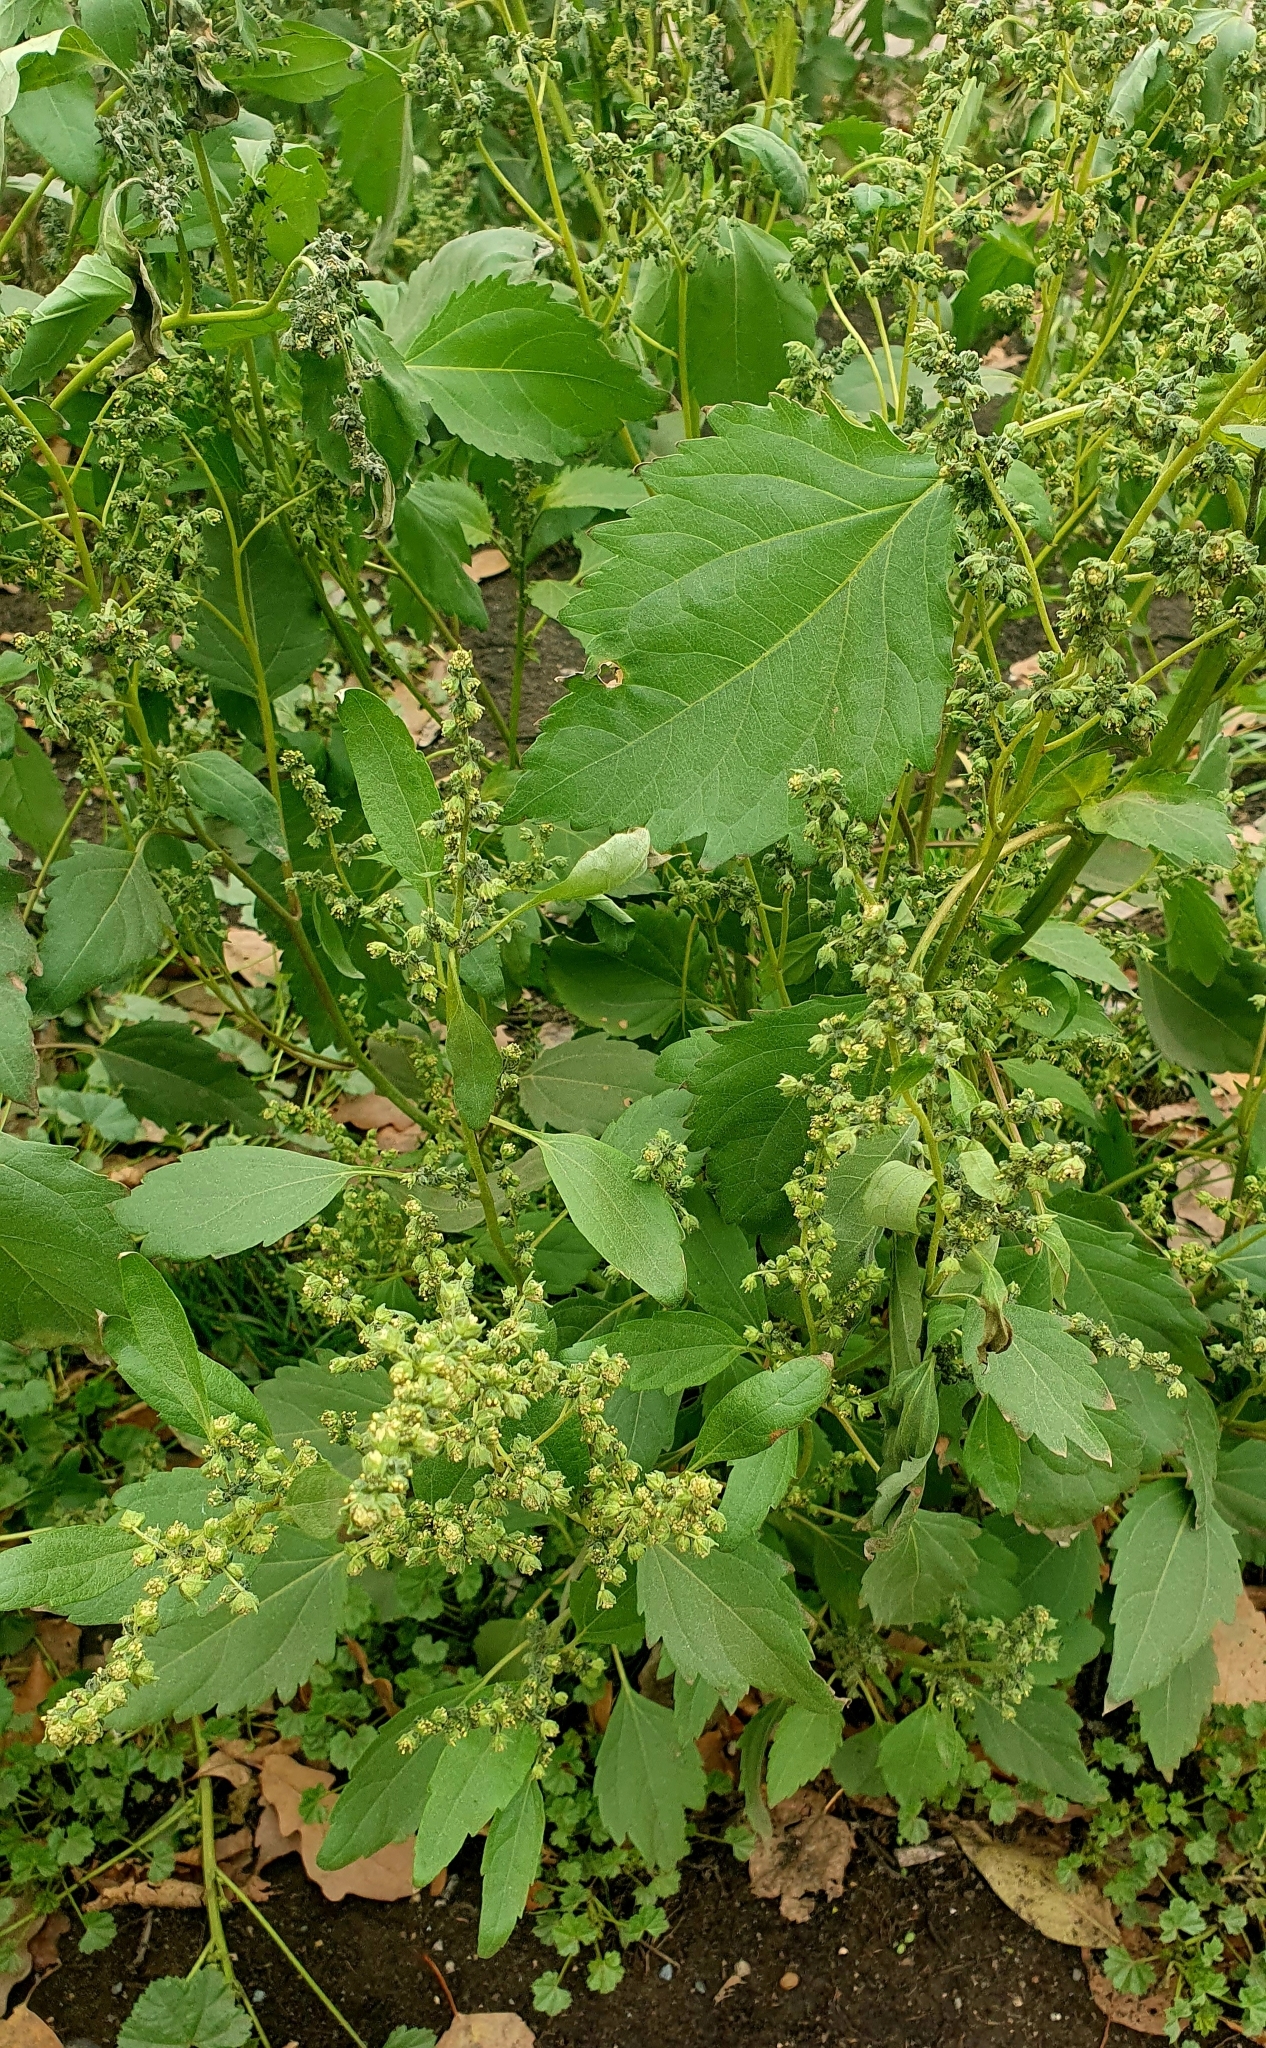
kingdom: Plantae
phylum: Tracheophyta
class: Magnoliopsida
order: Asterales
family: Asteraceae
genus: Cyclachaena
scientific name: Cyclachaena xanthiifolia
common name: Giant sumpweed
